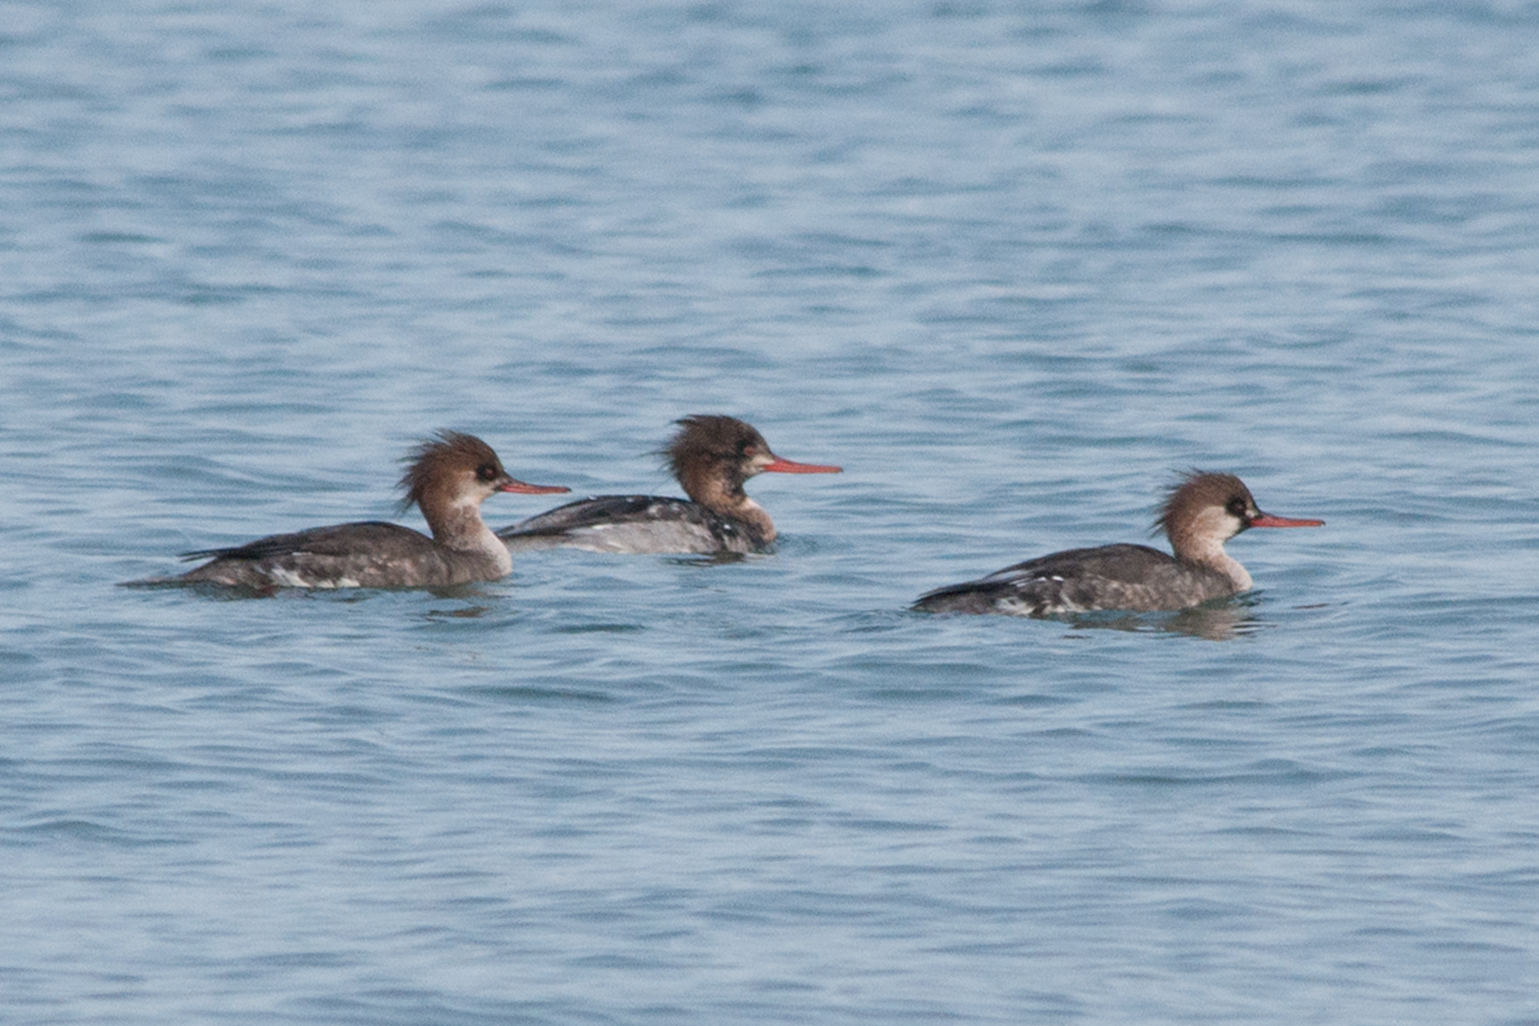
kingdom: Animalia
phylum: Chordata
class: Aves
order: Anseriformes
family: Anatidae
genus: Mergus
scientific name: Mergus serrator
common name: Red-breasted merganser
